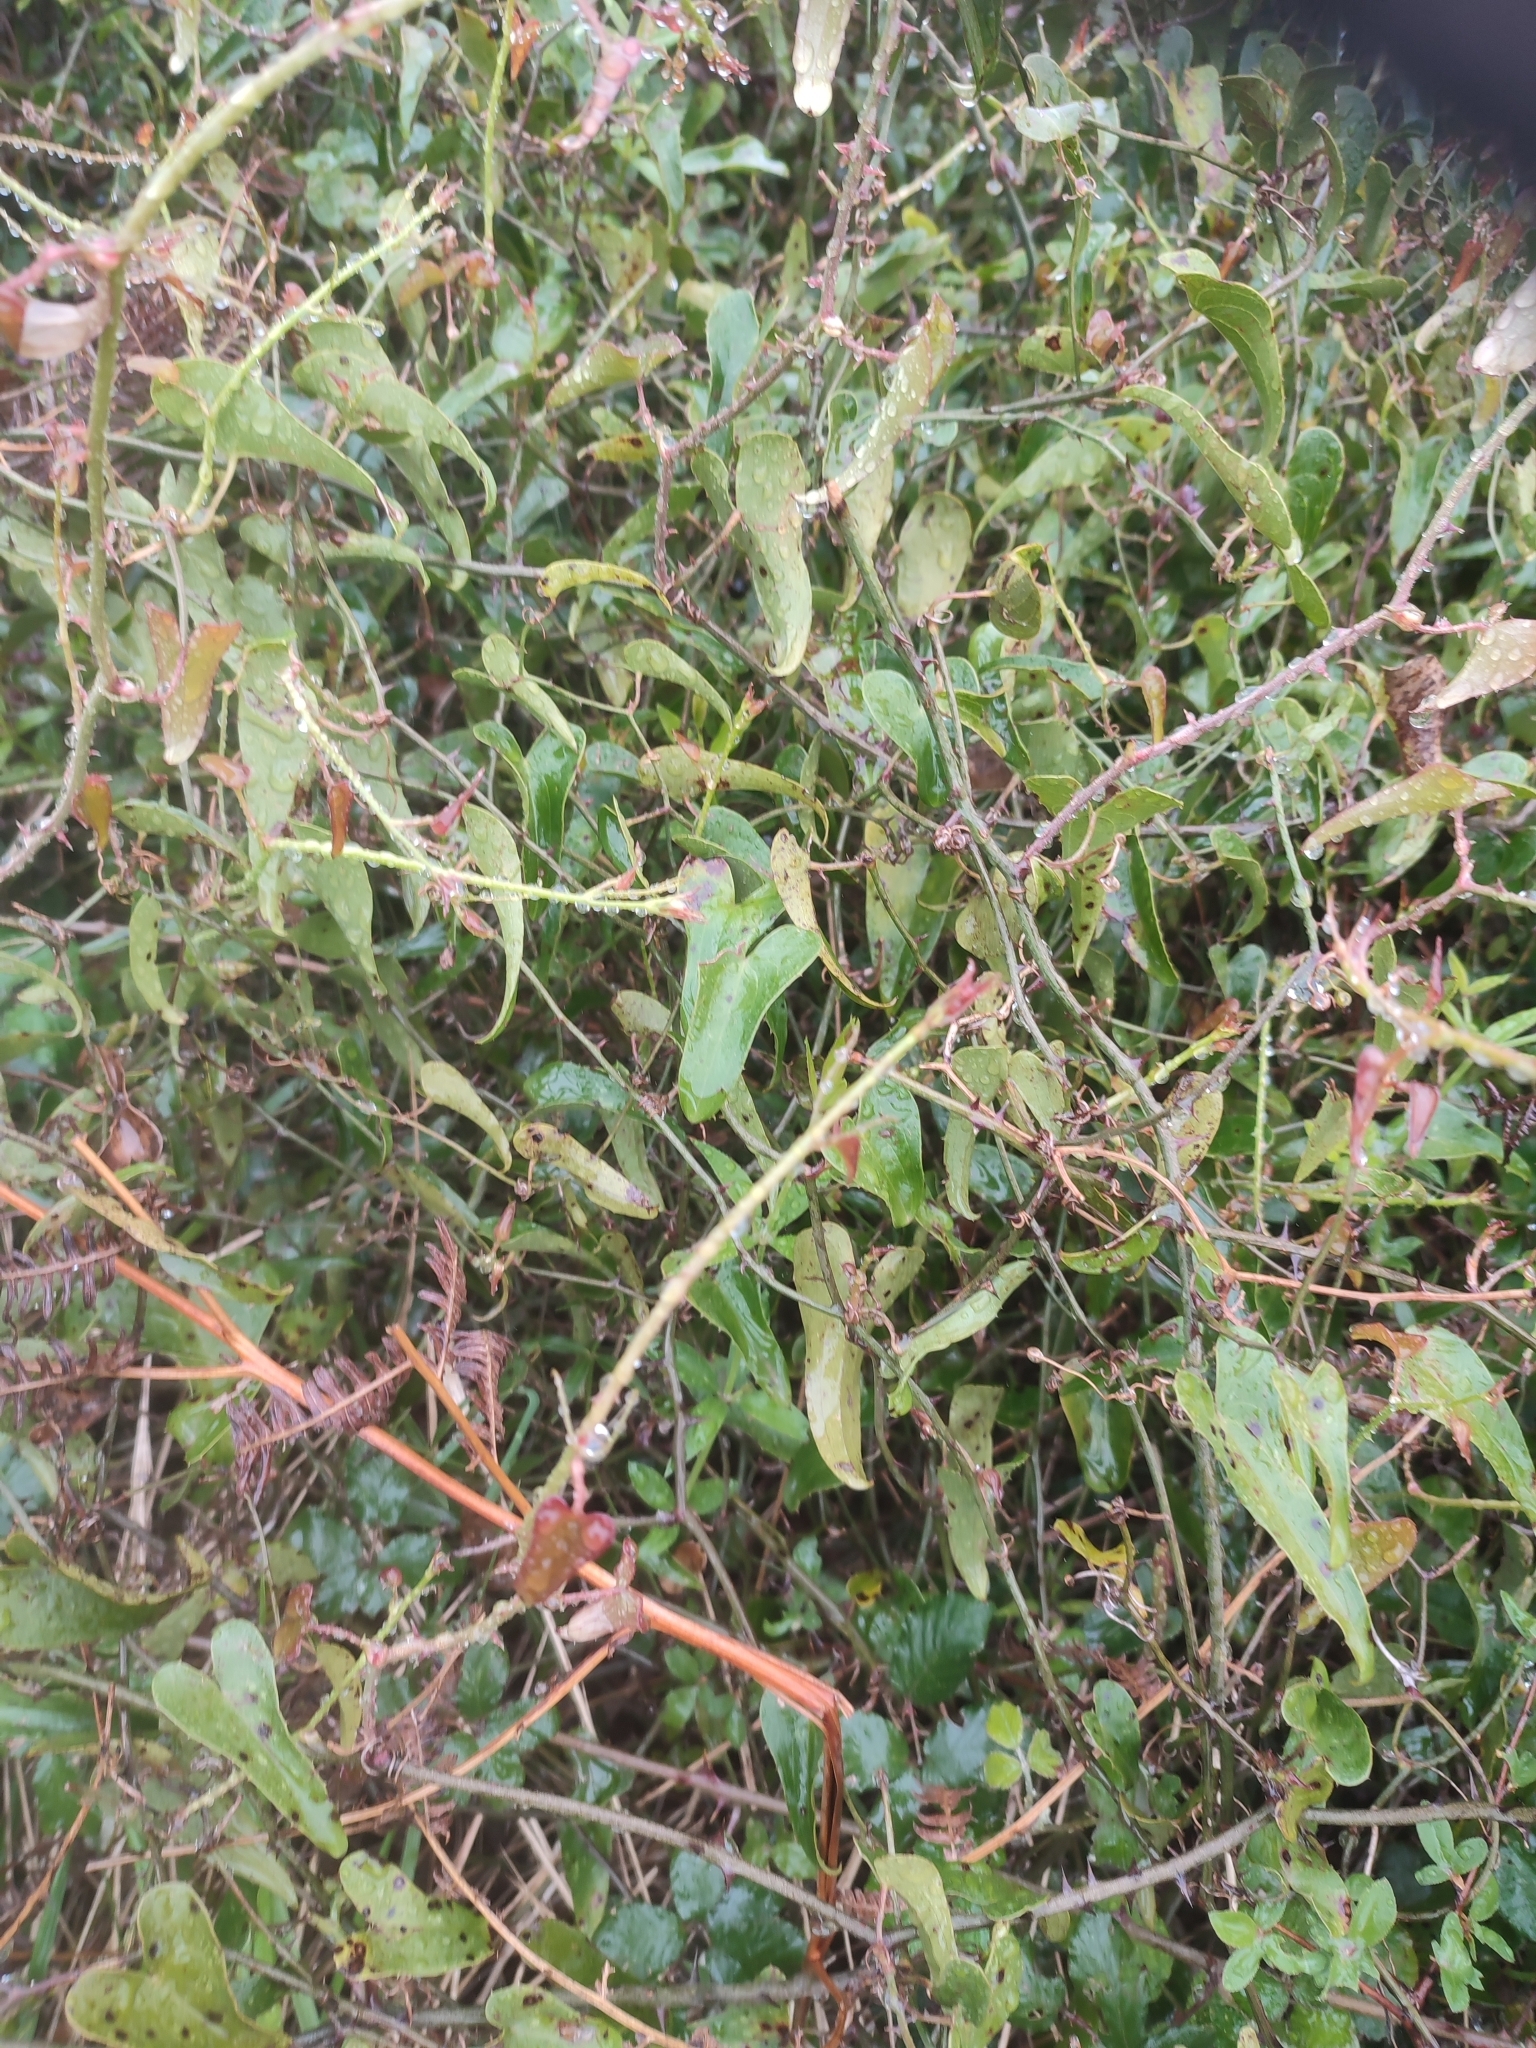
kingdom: Plantae
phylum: Tracheophyta
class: Liliopsida
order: Liliales
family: Smilacaceae
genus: Smilax
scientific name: Smilax aspera
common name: Common smilax
